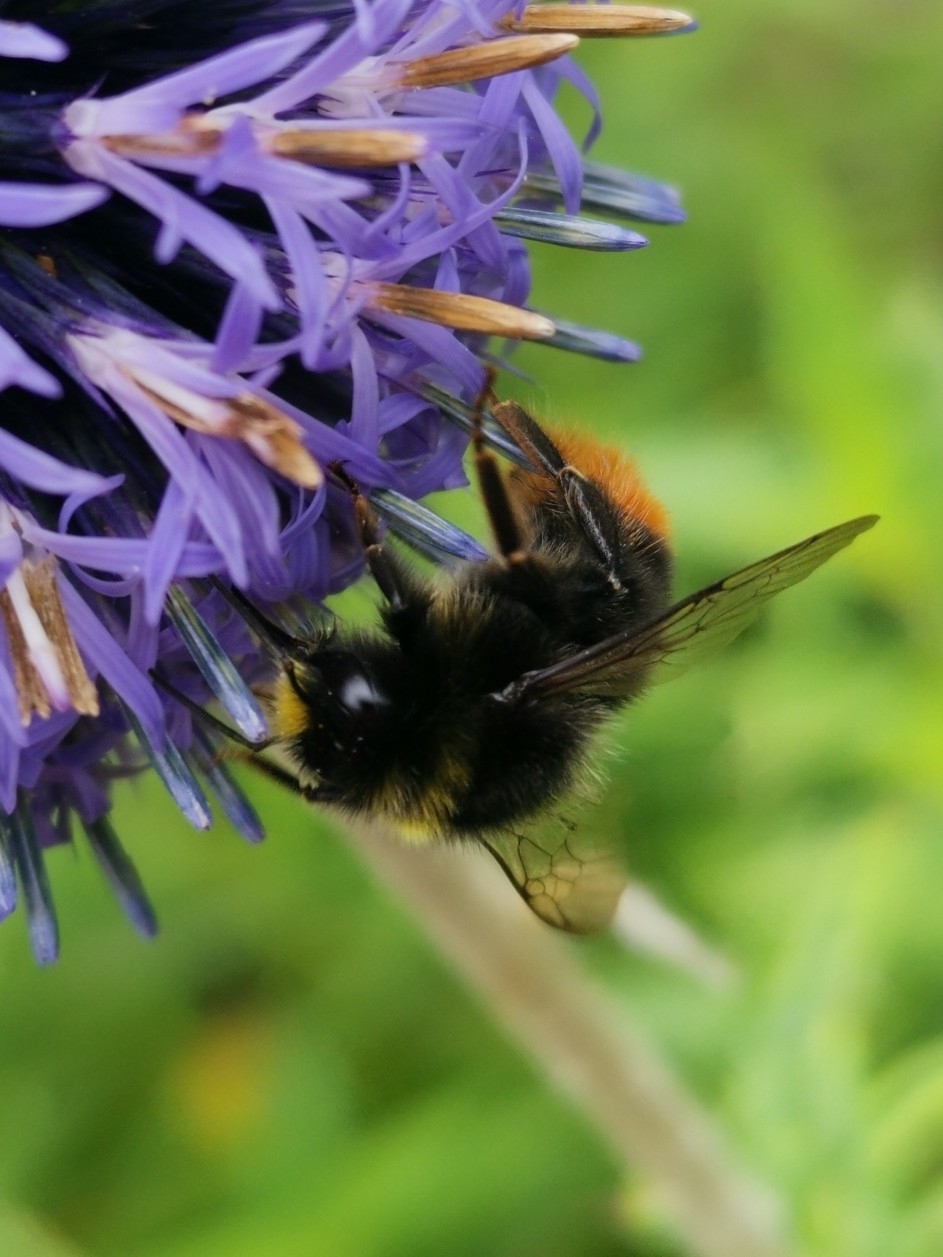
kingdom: Animalia
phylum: Arthropoda
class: Insecta
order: Hymenoptera
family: Apidae
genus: Bombus
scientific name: Bombus lapidarius
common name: Large red-tailed humble-bee
